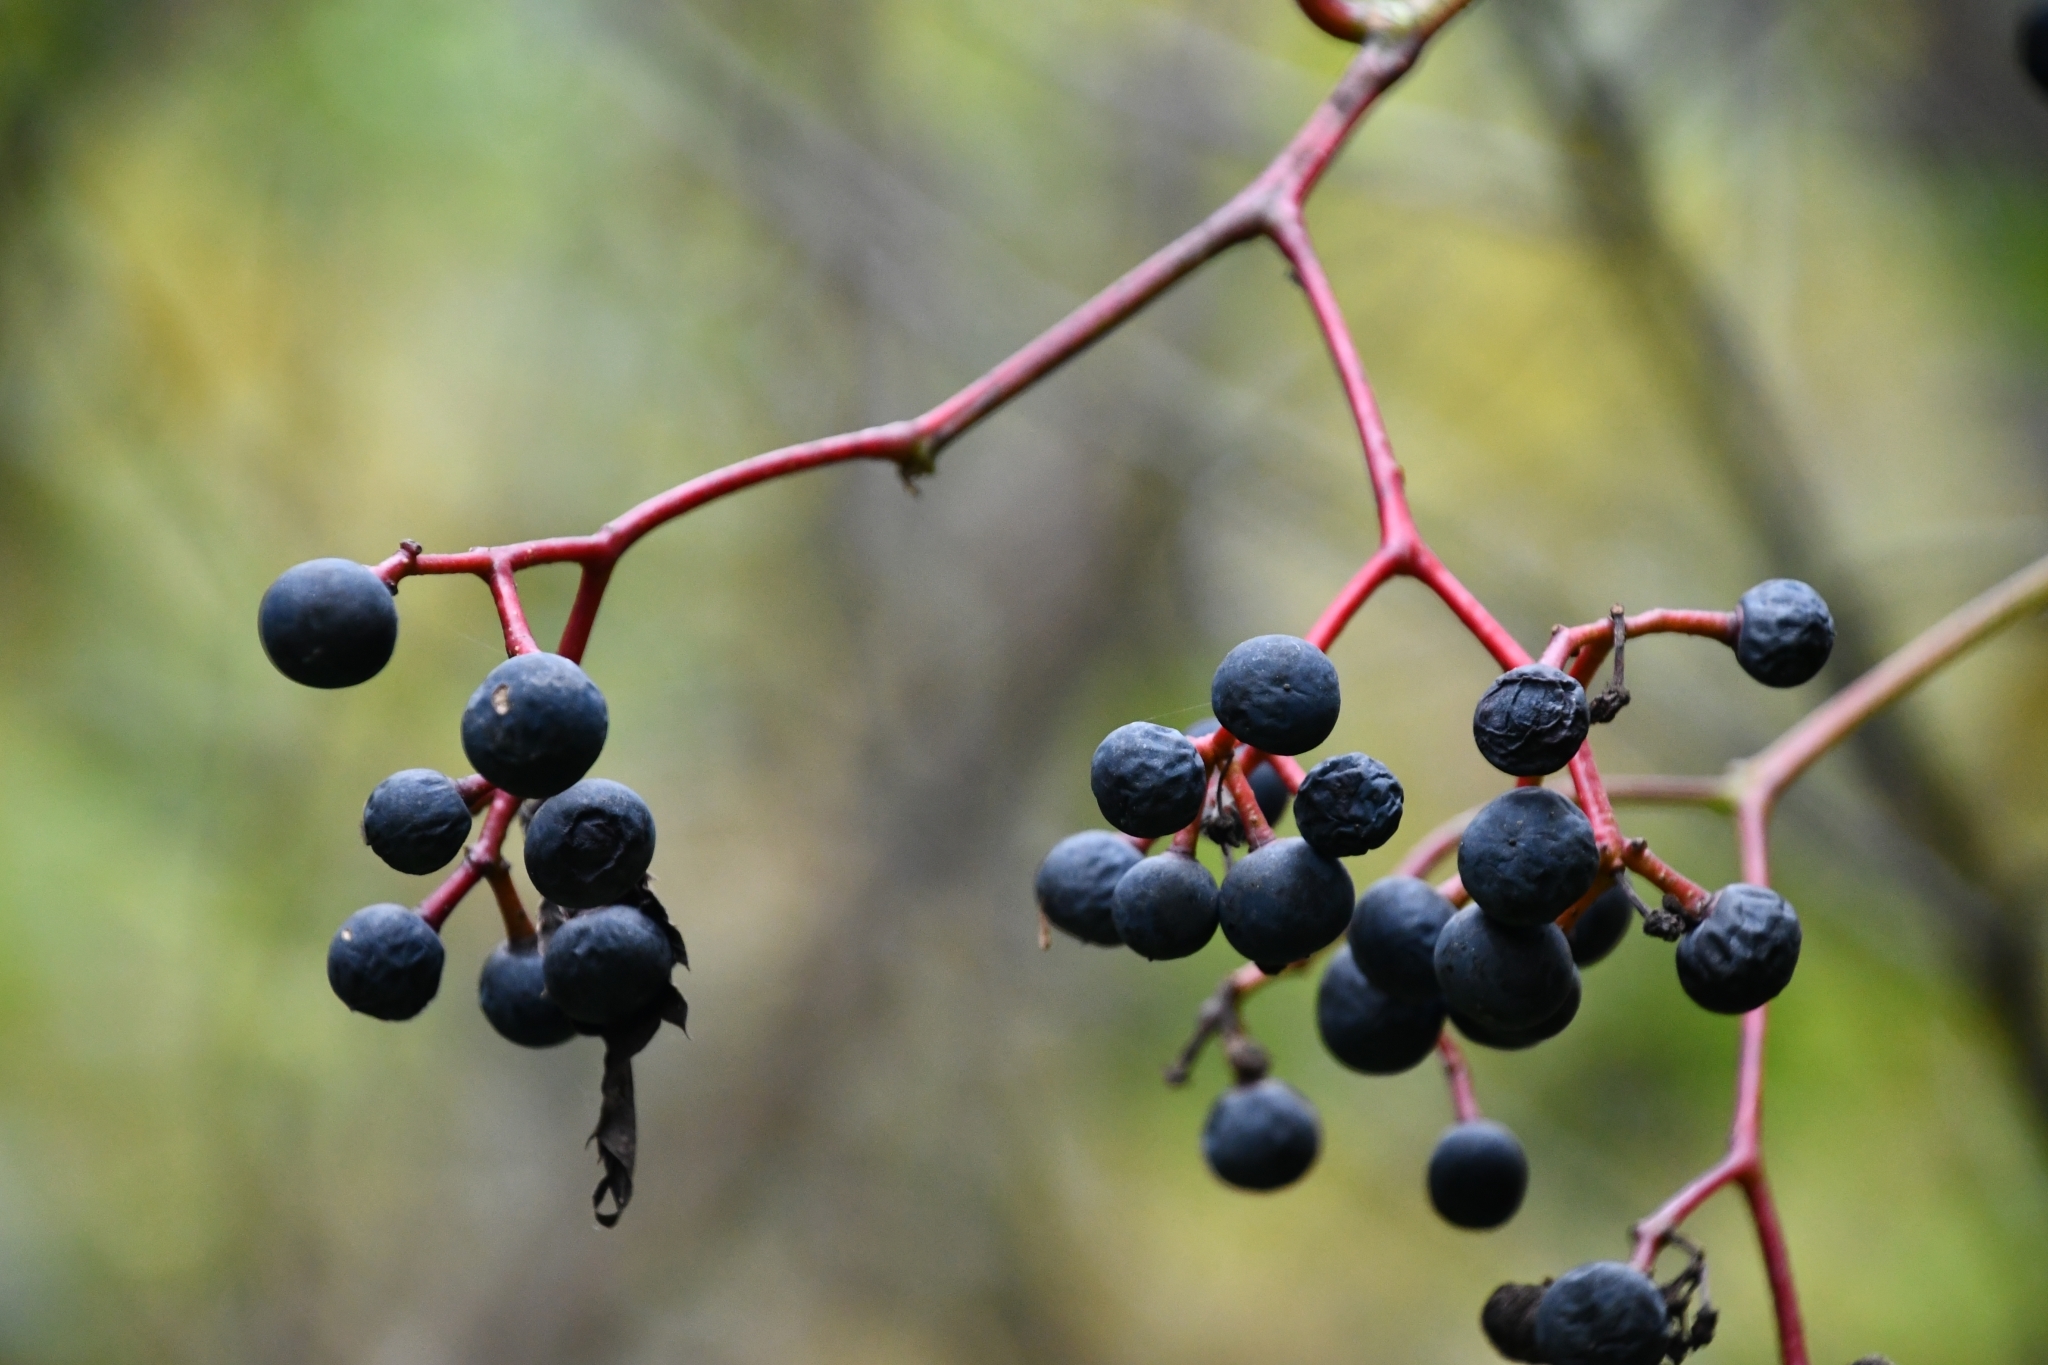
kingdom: Plantae
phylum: Tracheophyta
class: Magnoliopsida
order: Vitales
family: Vitaceae
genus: Parthenocissus
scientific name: Parthenocissus inserta
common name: False virginia-creeper
